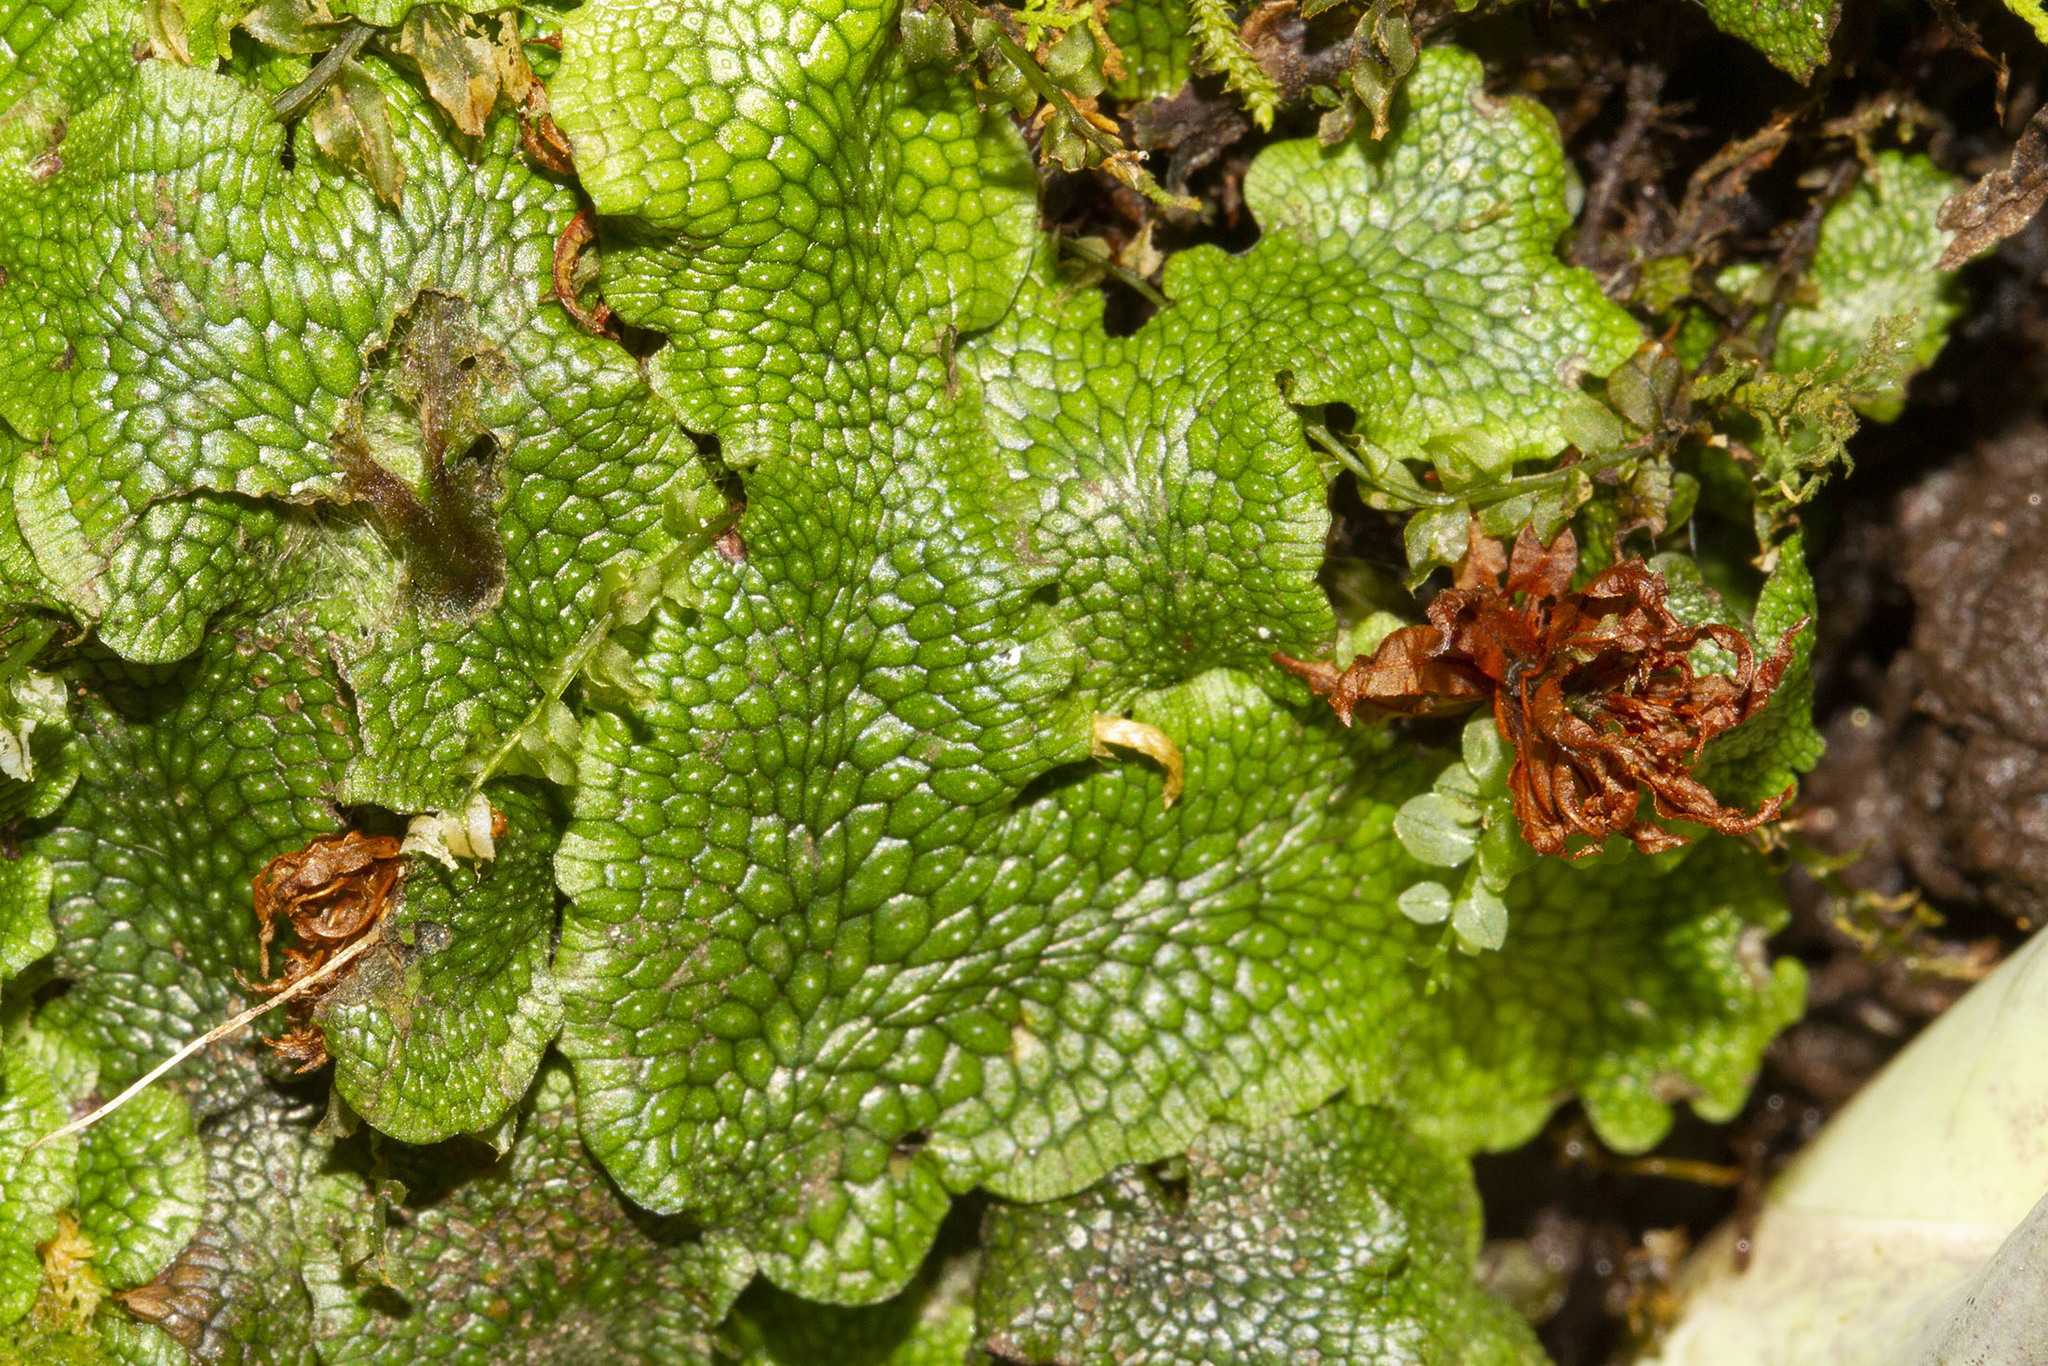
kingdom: Plantae
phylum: Marchantiophyta
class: Marchantiopsida
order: Marchantiales
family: Conocephalaceae
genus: Conocephalum
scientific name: Conocephalum salebrosum
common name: Cat-tongue liverwort
